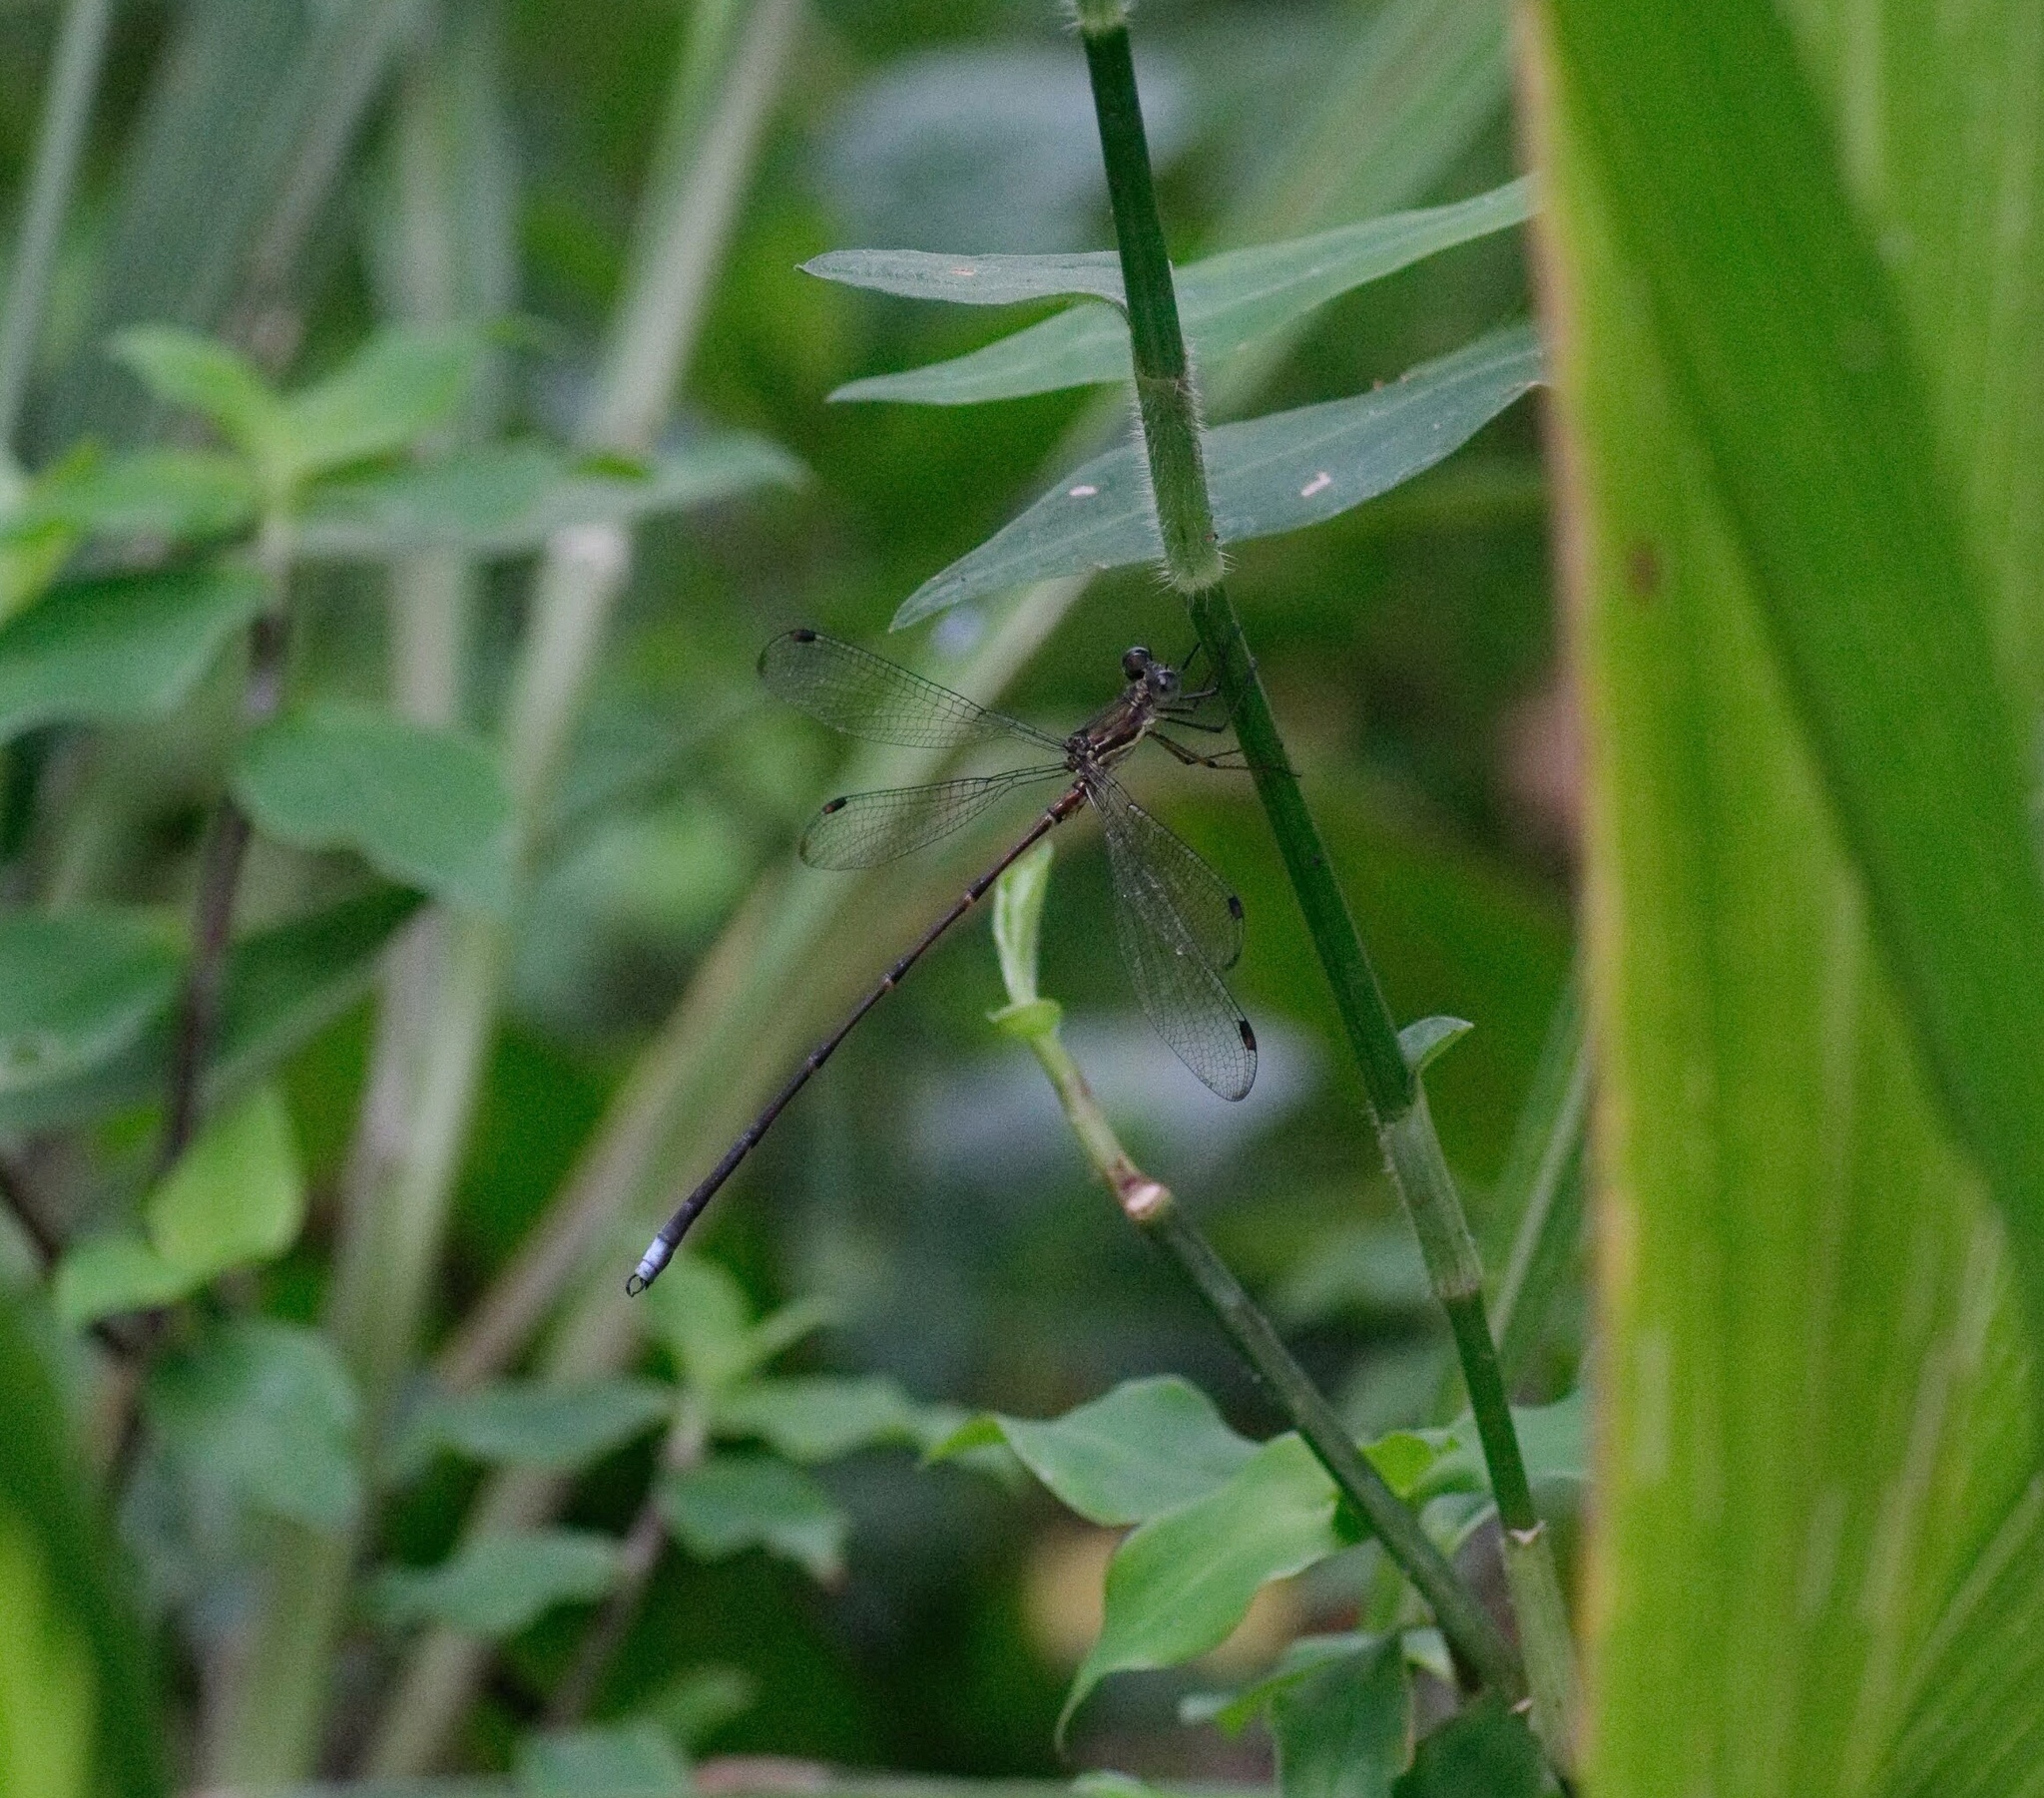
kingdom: Animalia
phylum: Arthropoda
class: Insecta
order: Odonata
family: Synlestidae
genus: Chlorolestes
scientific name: Chlorolestes tessellatus
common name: Forest malachite
